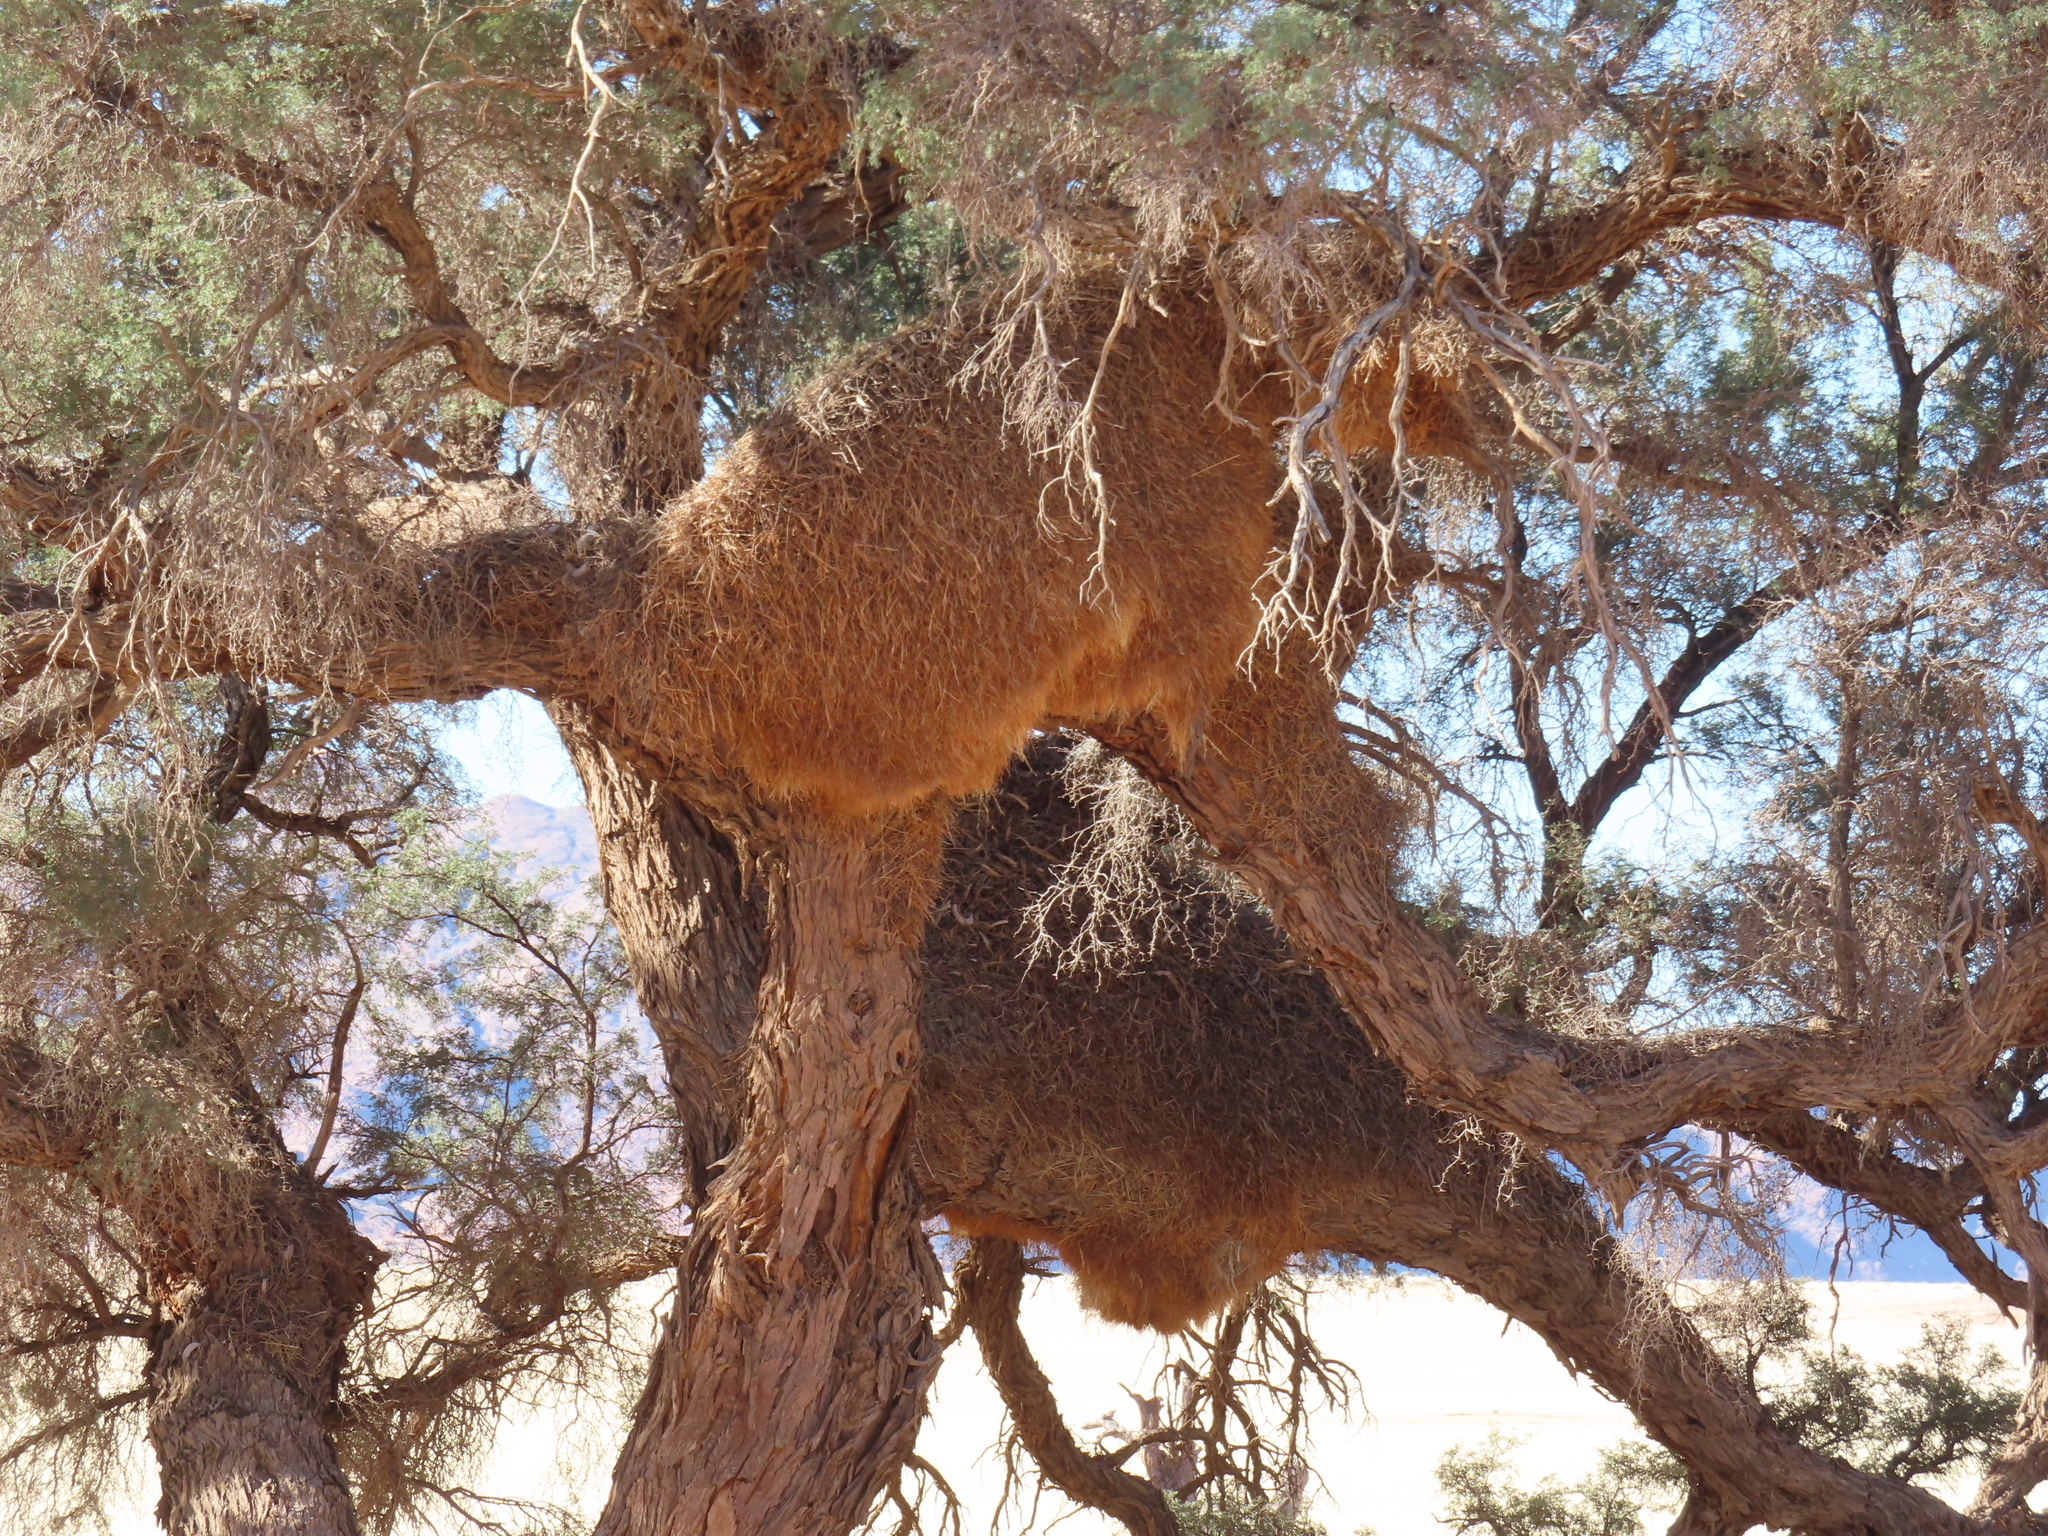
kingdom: Animalia
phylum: Chordata
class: Aves
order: Passeriformes
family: Passeridae
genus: Philetairus
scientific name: Philetairus socius
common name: Sociable weaver
